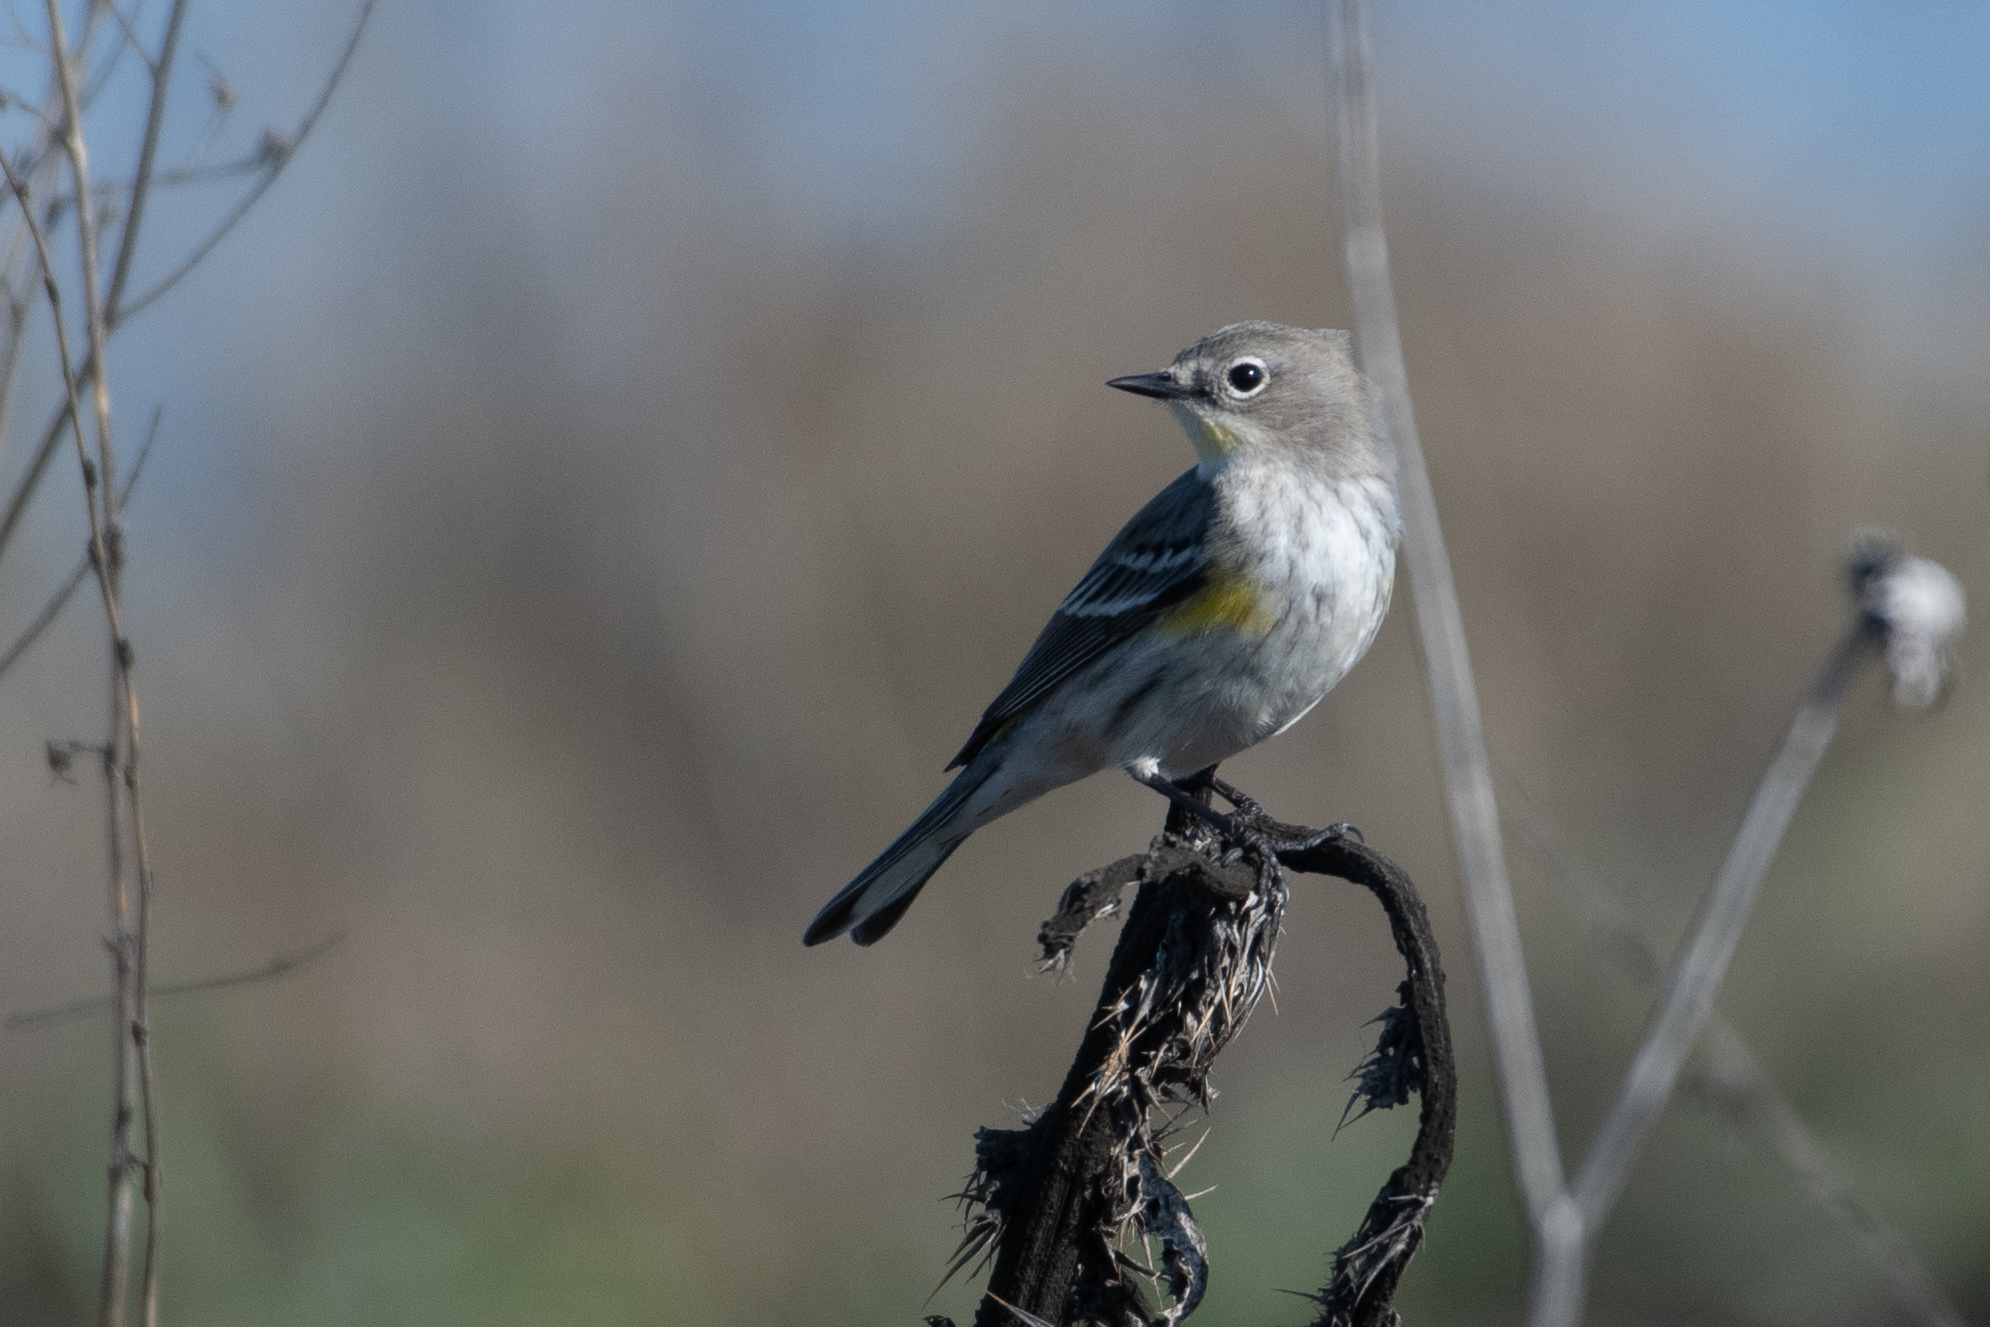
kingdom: Animalia
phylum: Chordata
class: Aves
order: Passeriformes
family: Parulidae
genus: Setophaga
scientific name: Setophaga coronata
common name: Myrtle warbler
